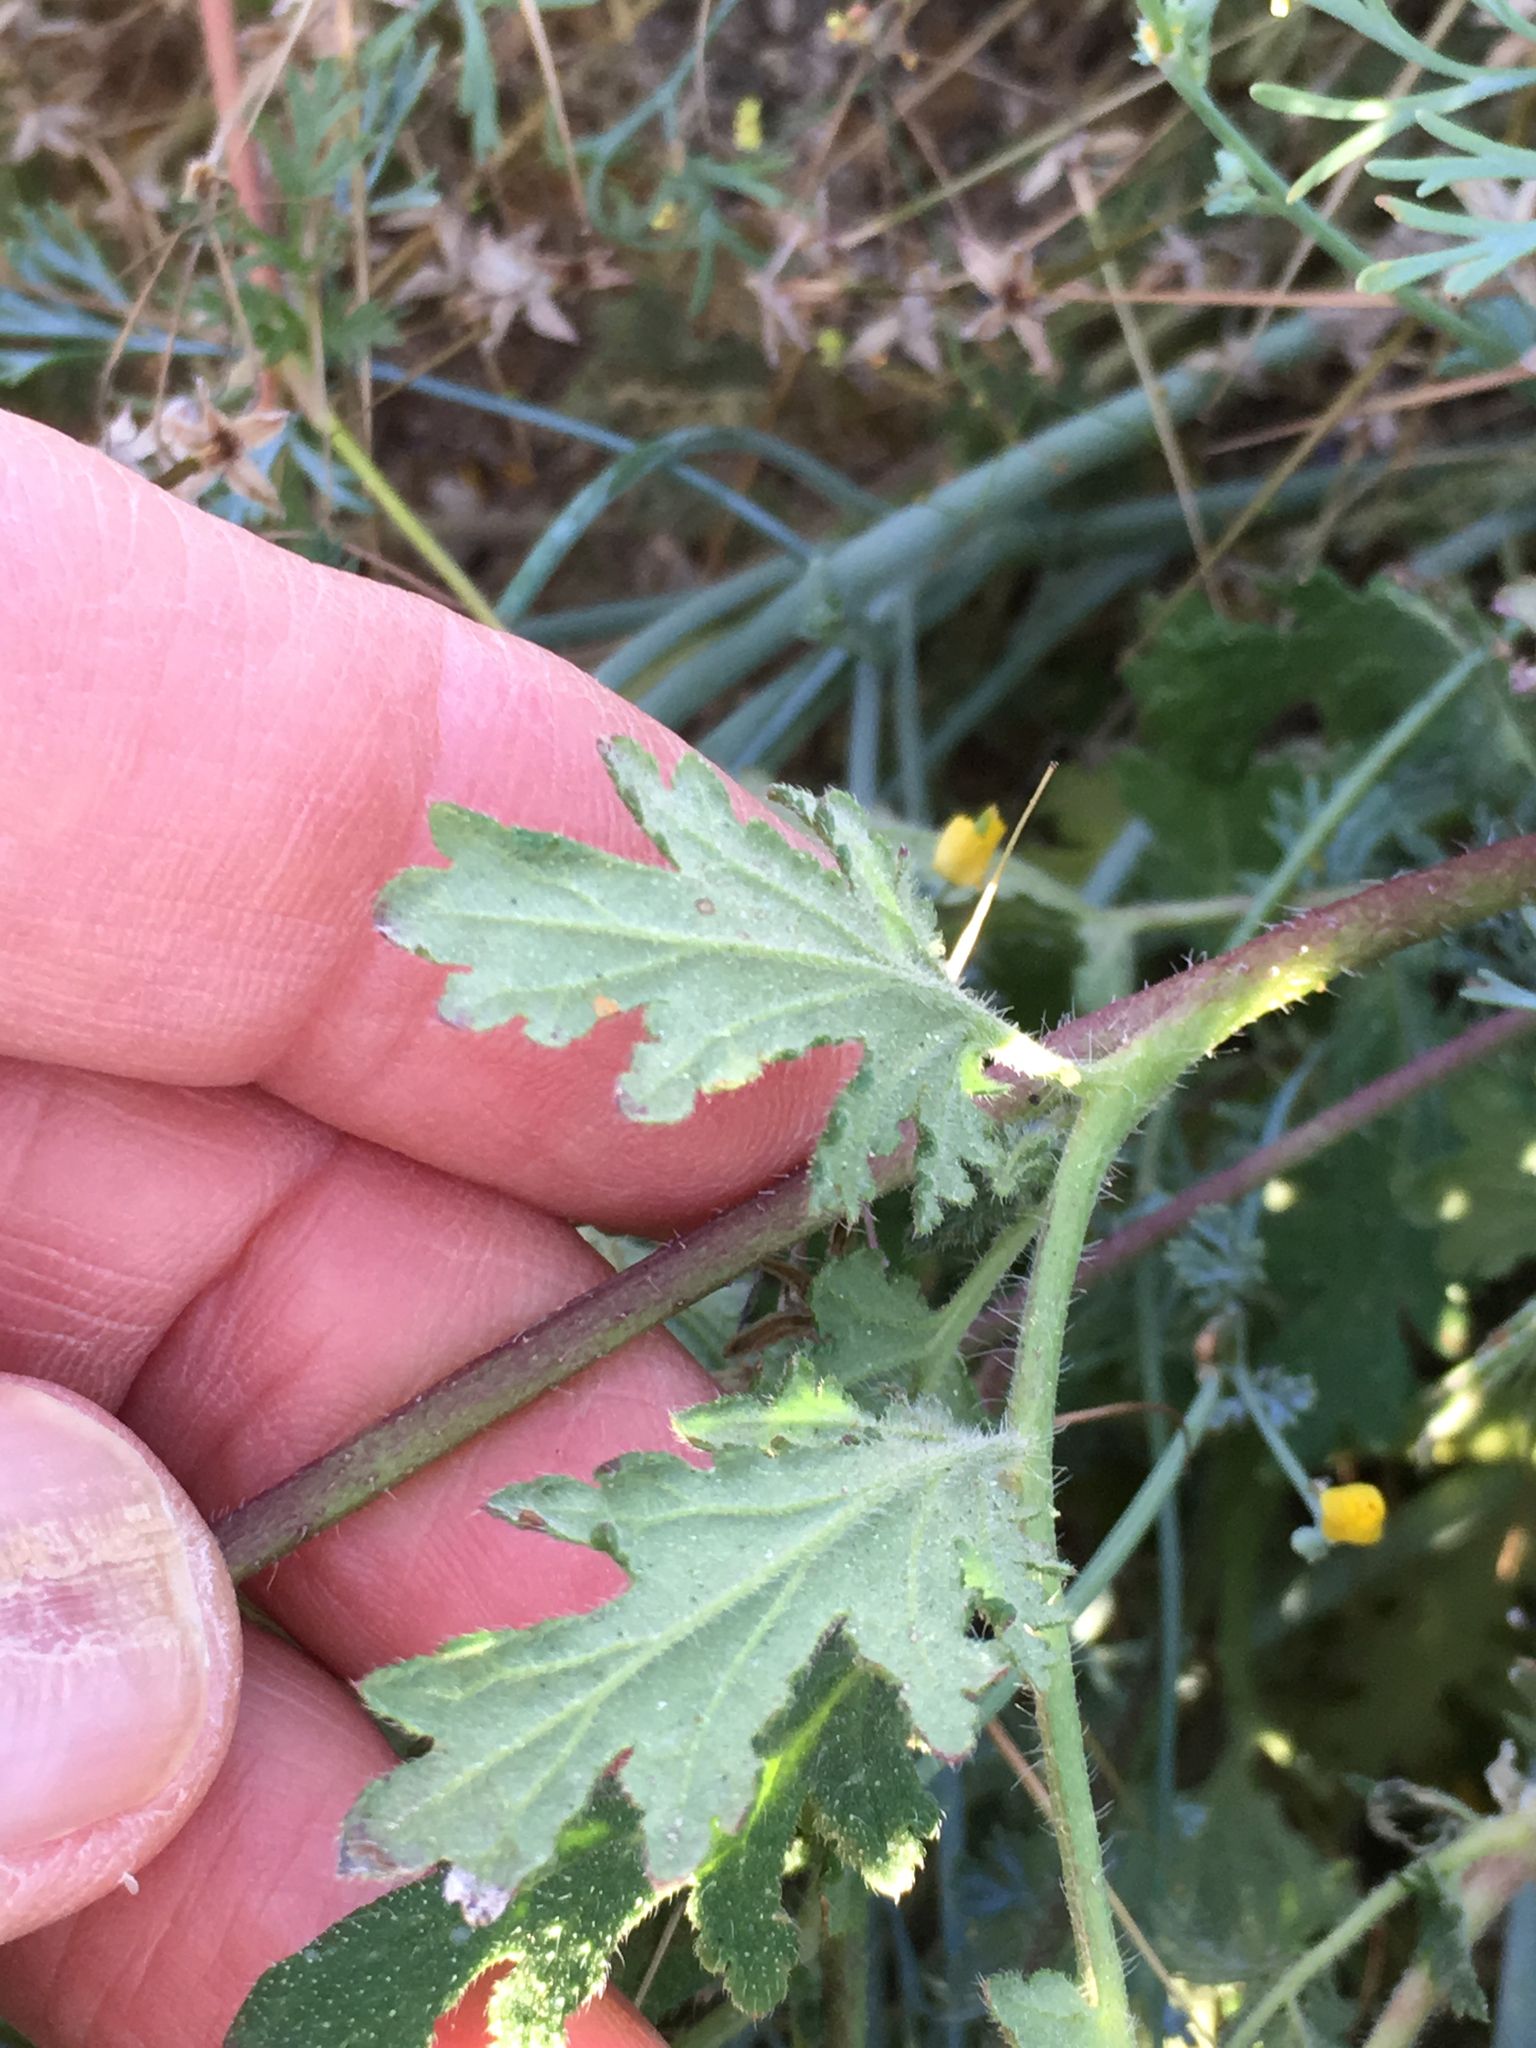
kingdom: Plantae
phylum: Tracheophyta
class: Magnoliopsida
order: Boraginales
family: Hydrophyllaceae
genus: Phacelia
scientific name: Phacelia distans
